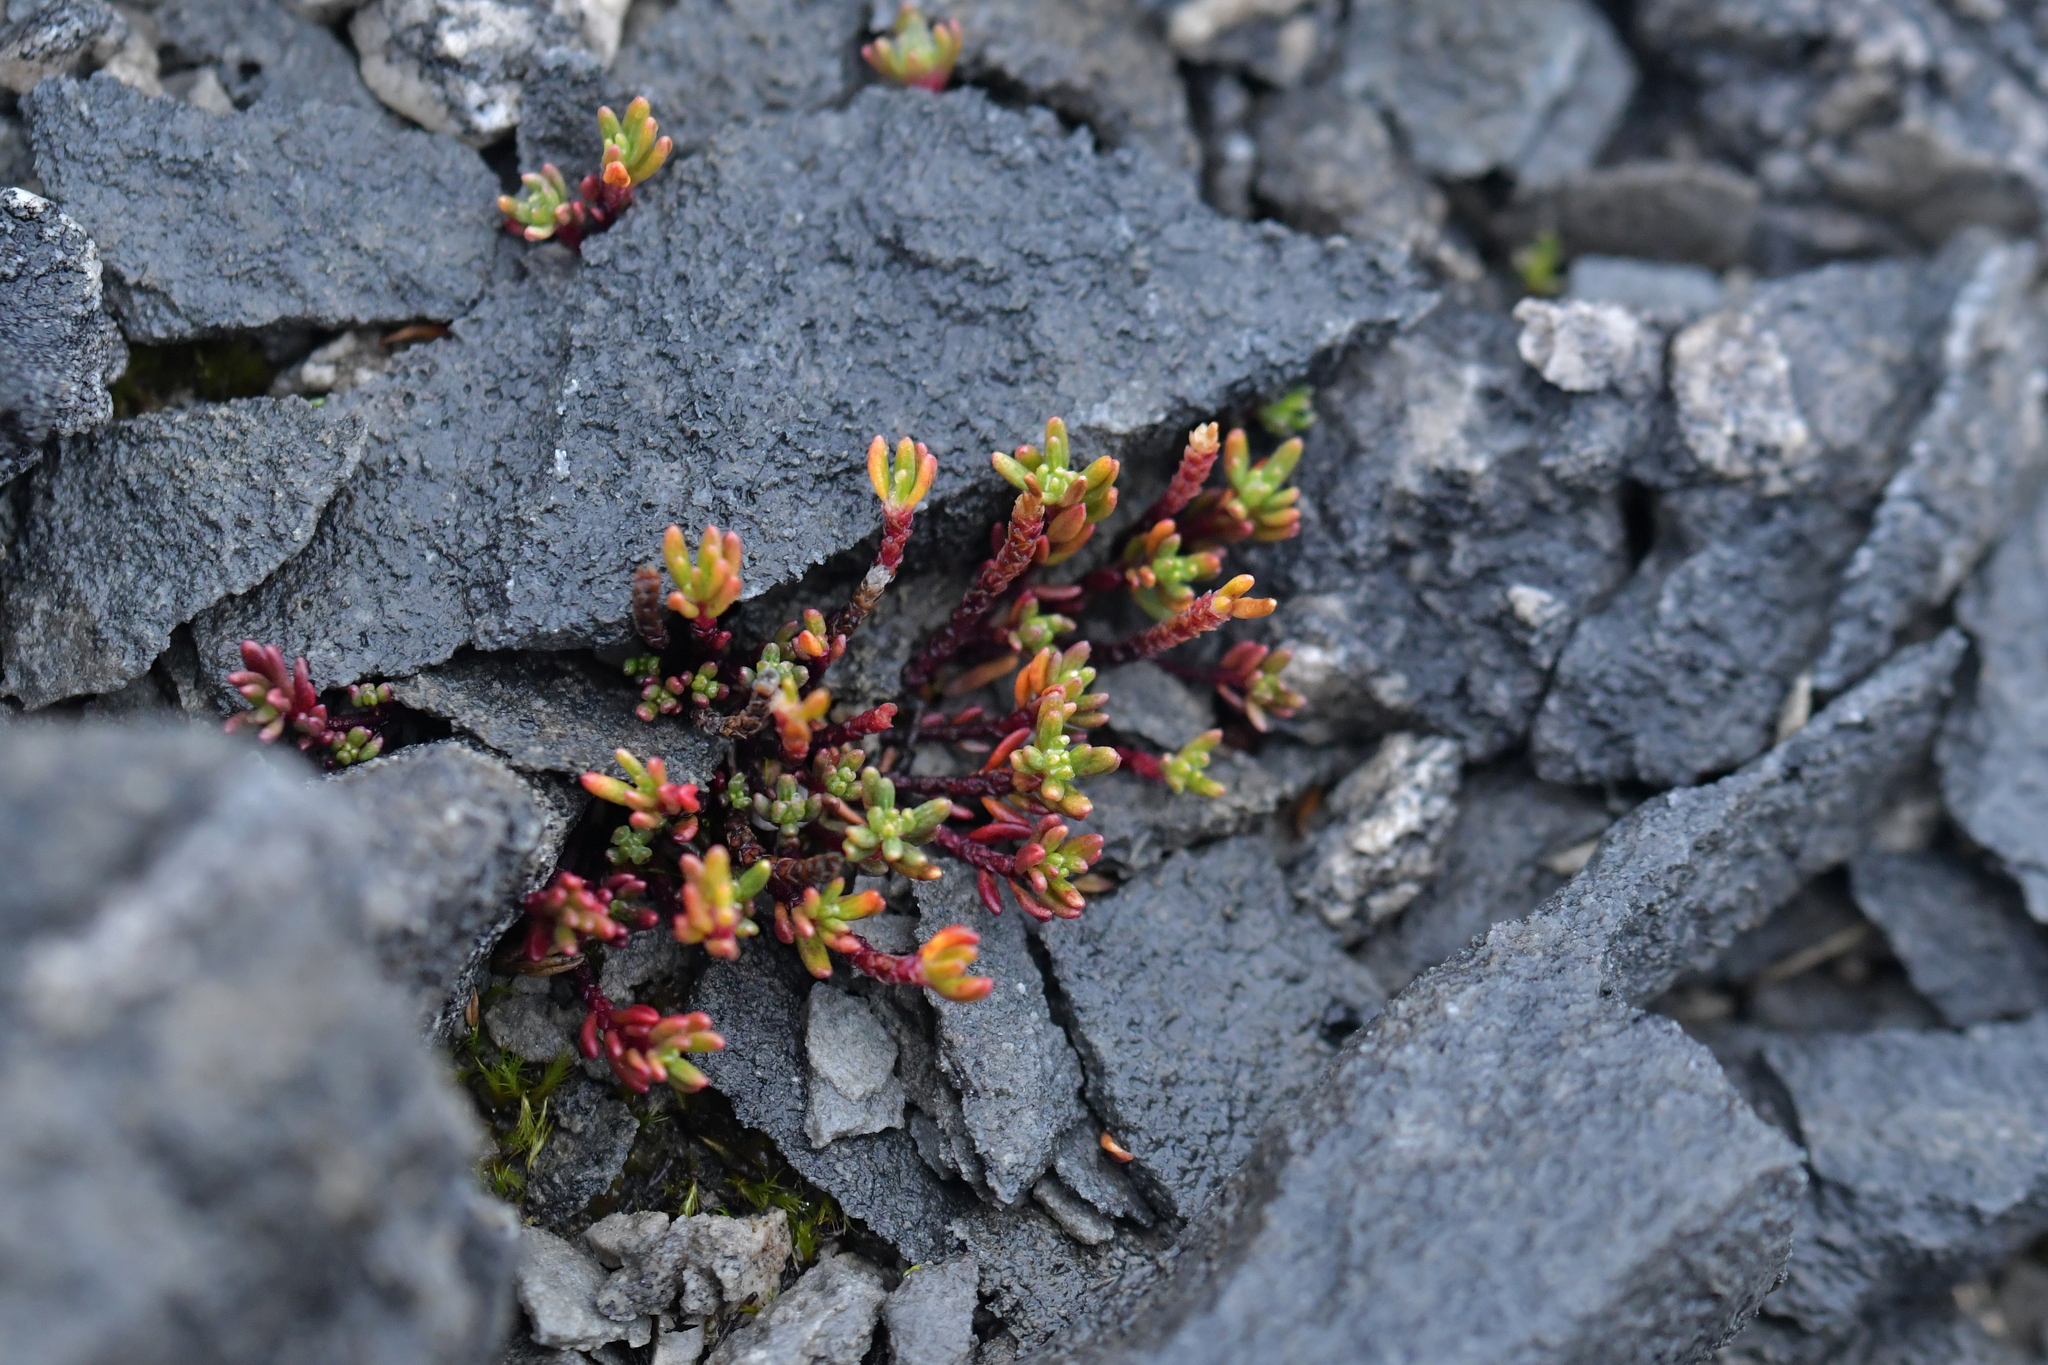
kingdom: Plantae
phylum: Tracheophyta
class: Magnoliopsida
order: Malpighiales
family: Phyllanthaceae
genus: Poranthera
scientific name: Poranthera alpina
